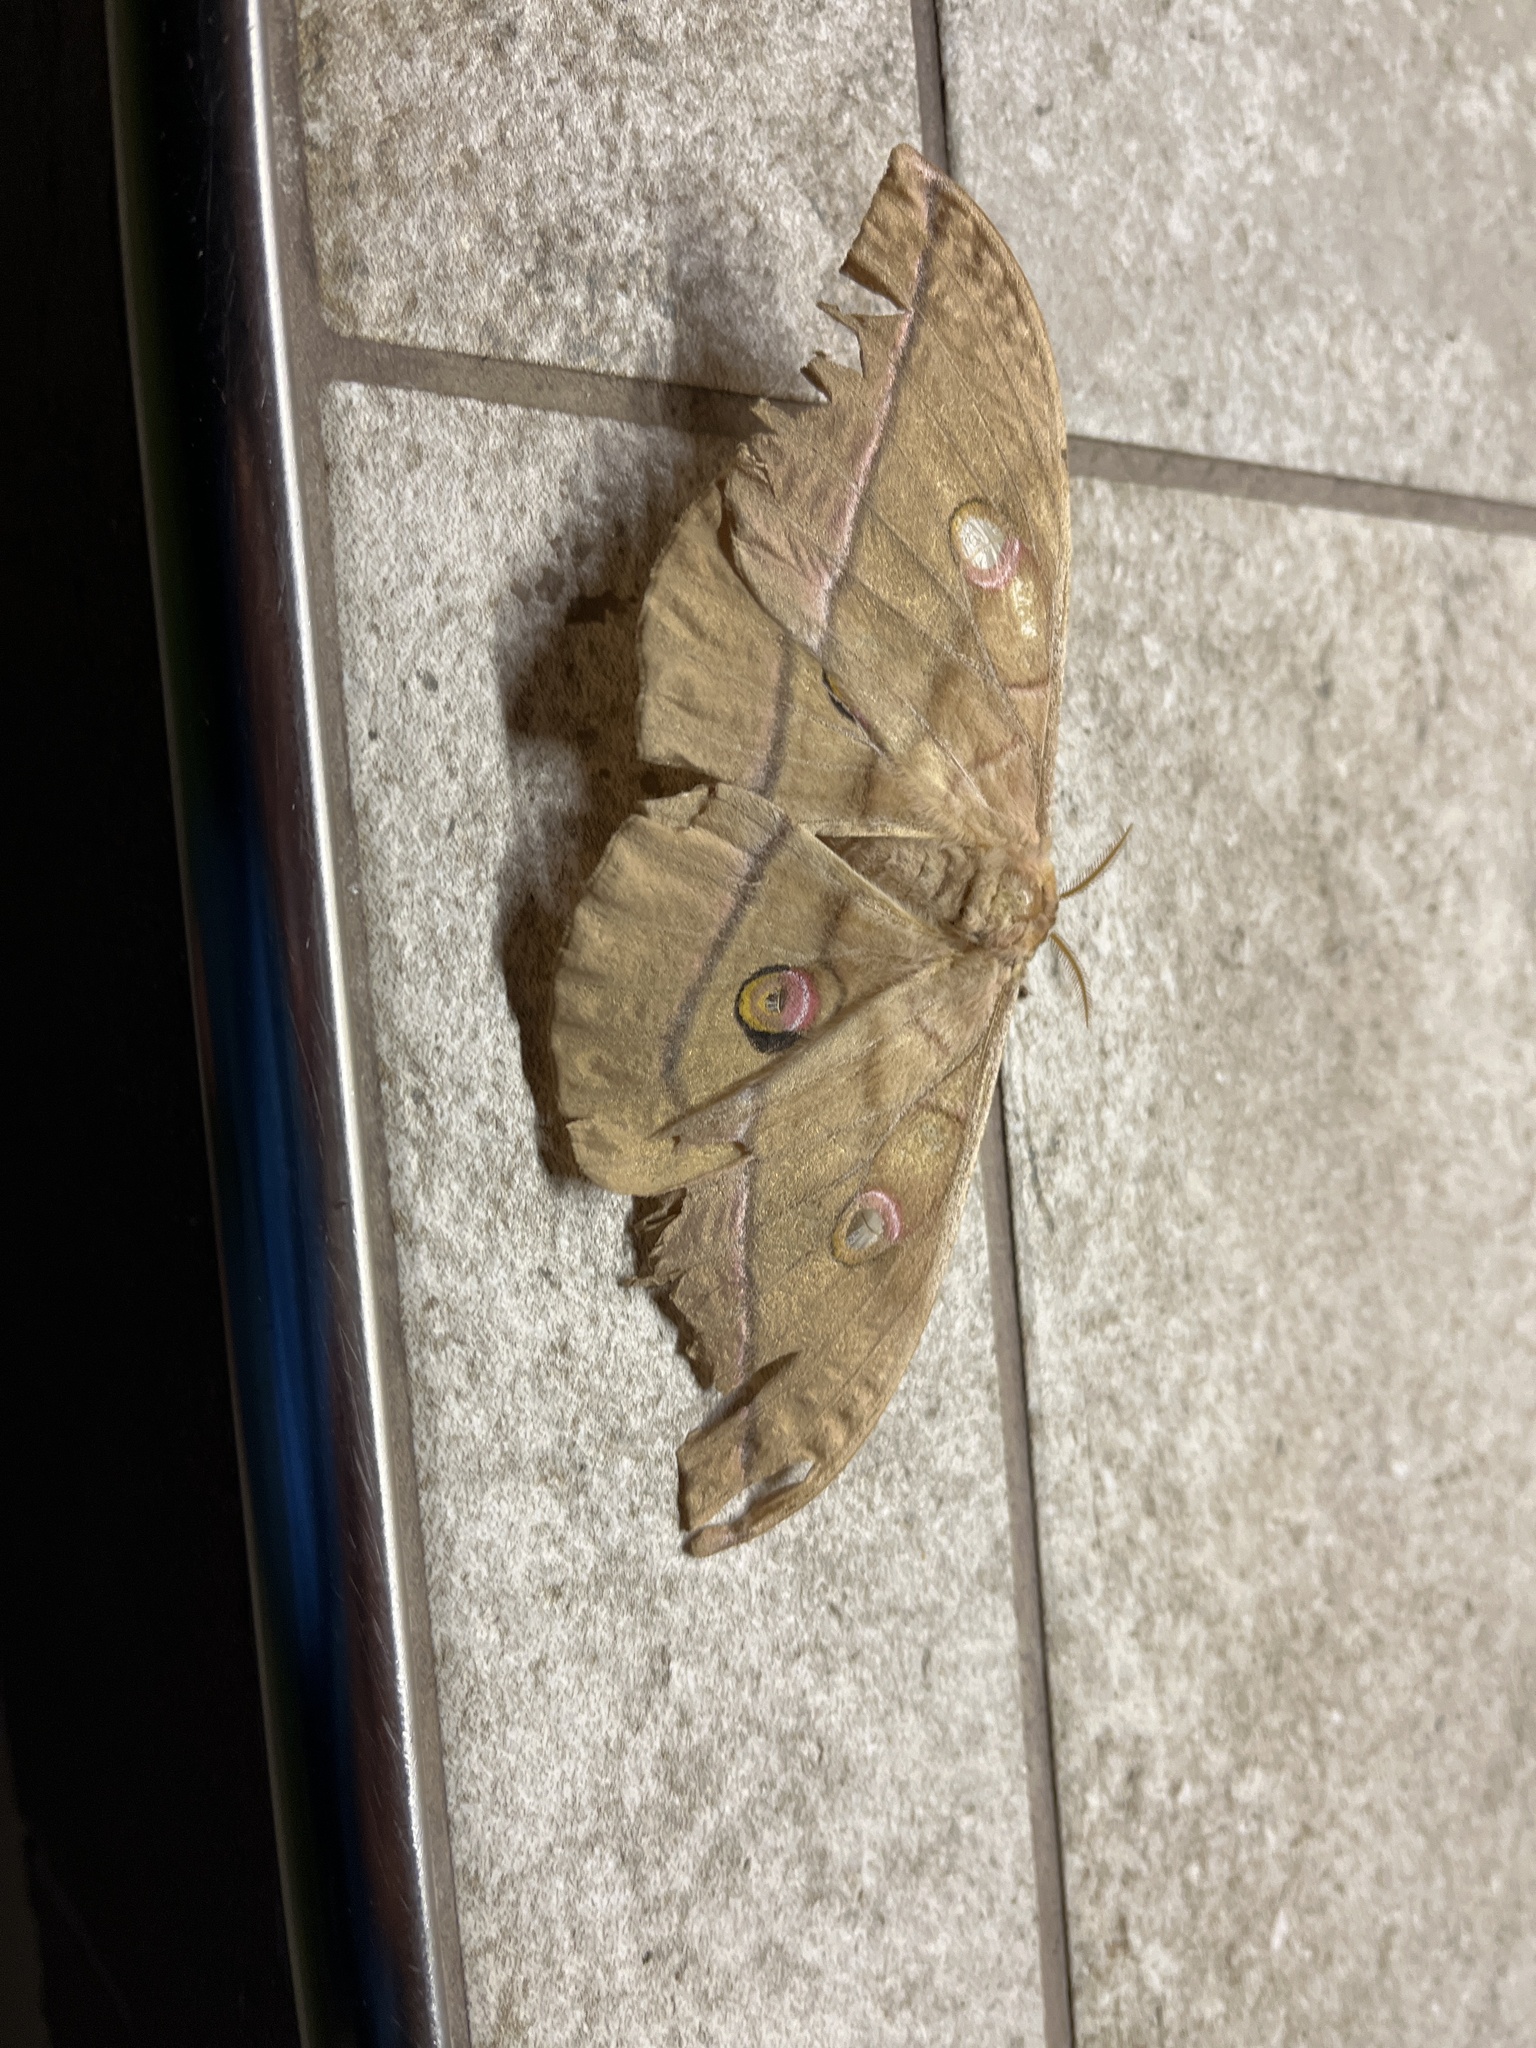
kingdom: Animalia
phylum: Arthropoda
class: Insecta
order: Lepidoptera
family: Saturniidae
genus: Antheraea
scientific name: Antheraea yamamai
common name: Japanese oak silk moth
